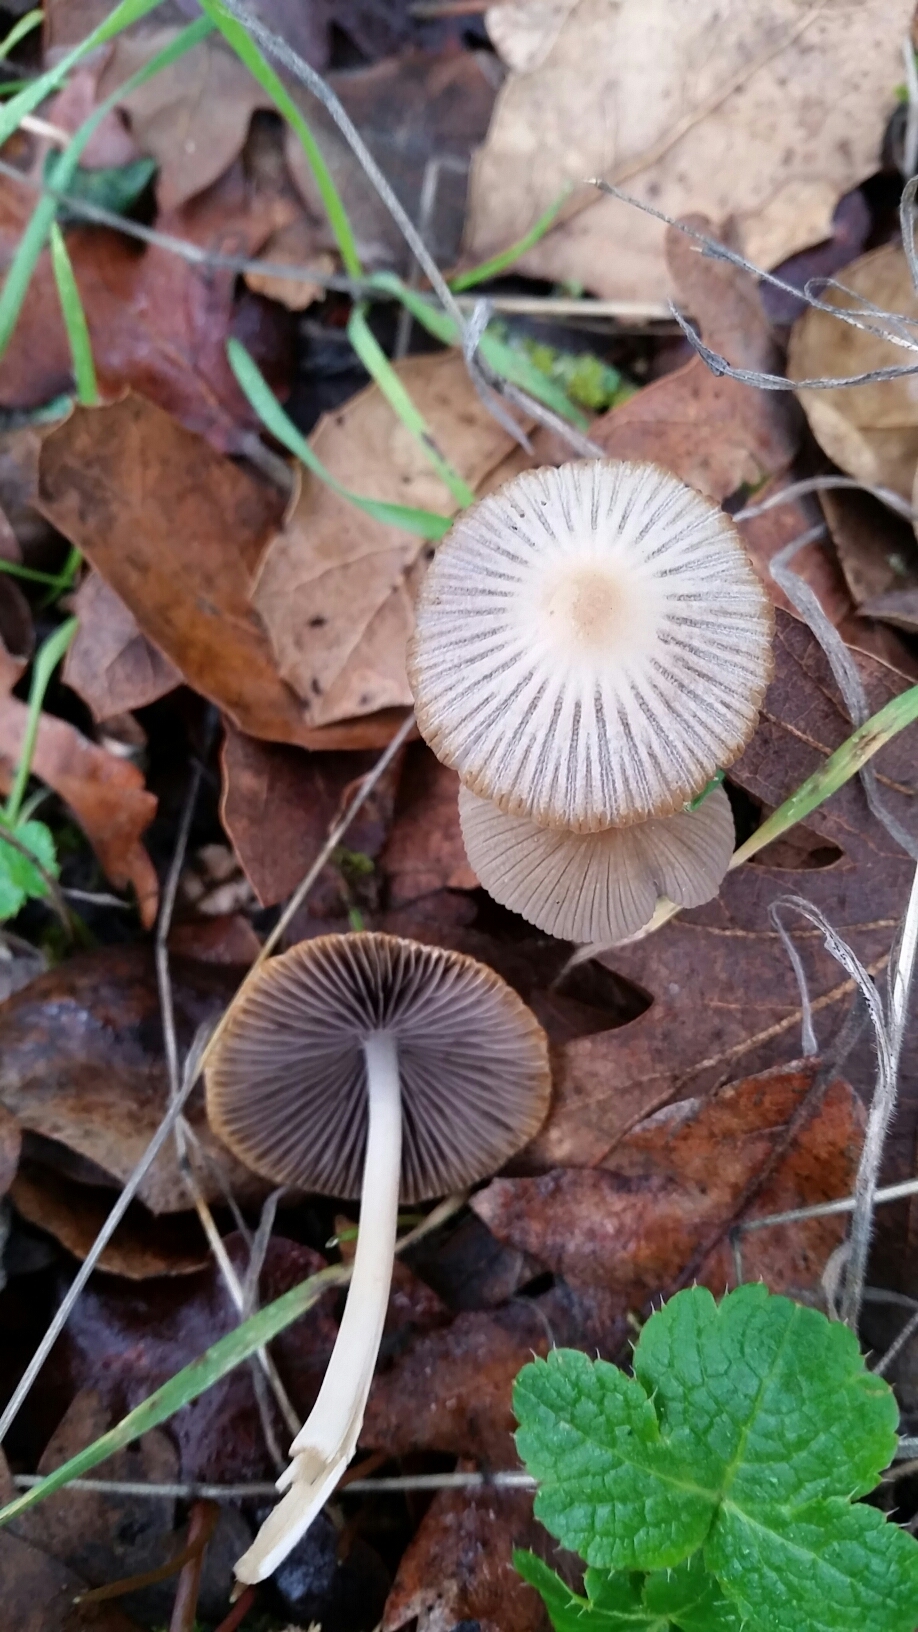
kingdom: Fungi
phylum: Basidiomycota
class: Agaricomycetes
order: Agaricales
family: Psathyrellaceae
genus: Tulosesus
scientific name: Tulosesus impatiens
